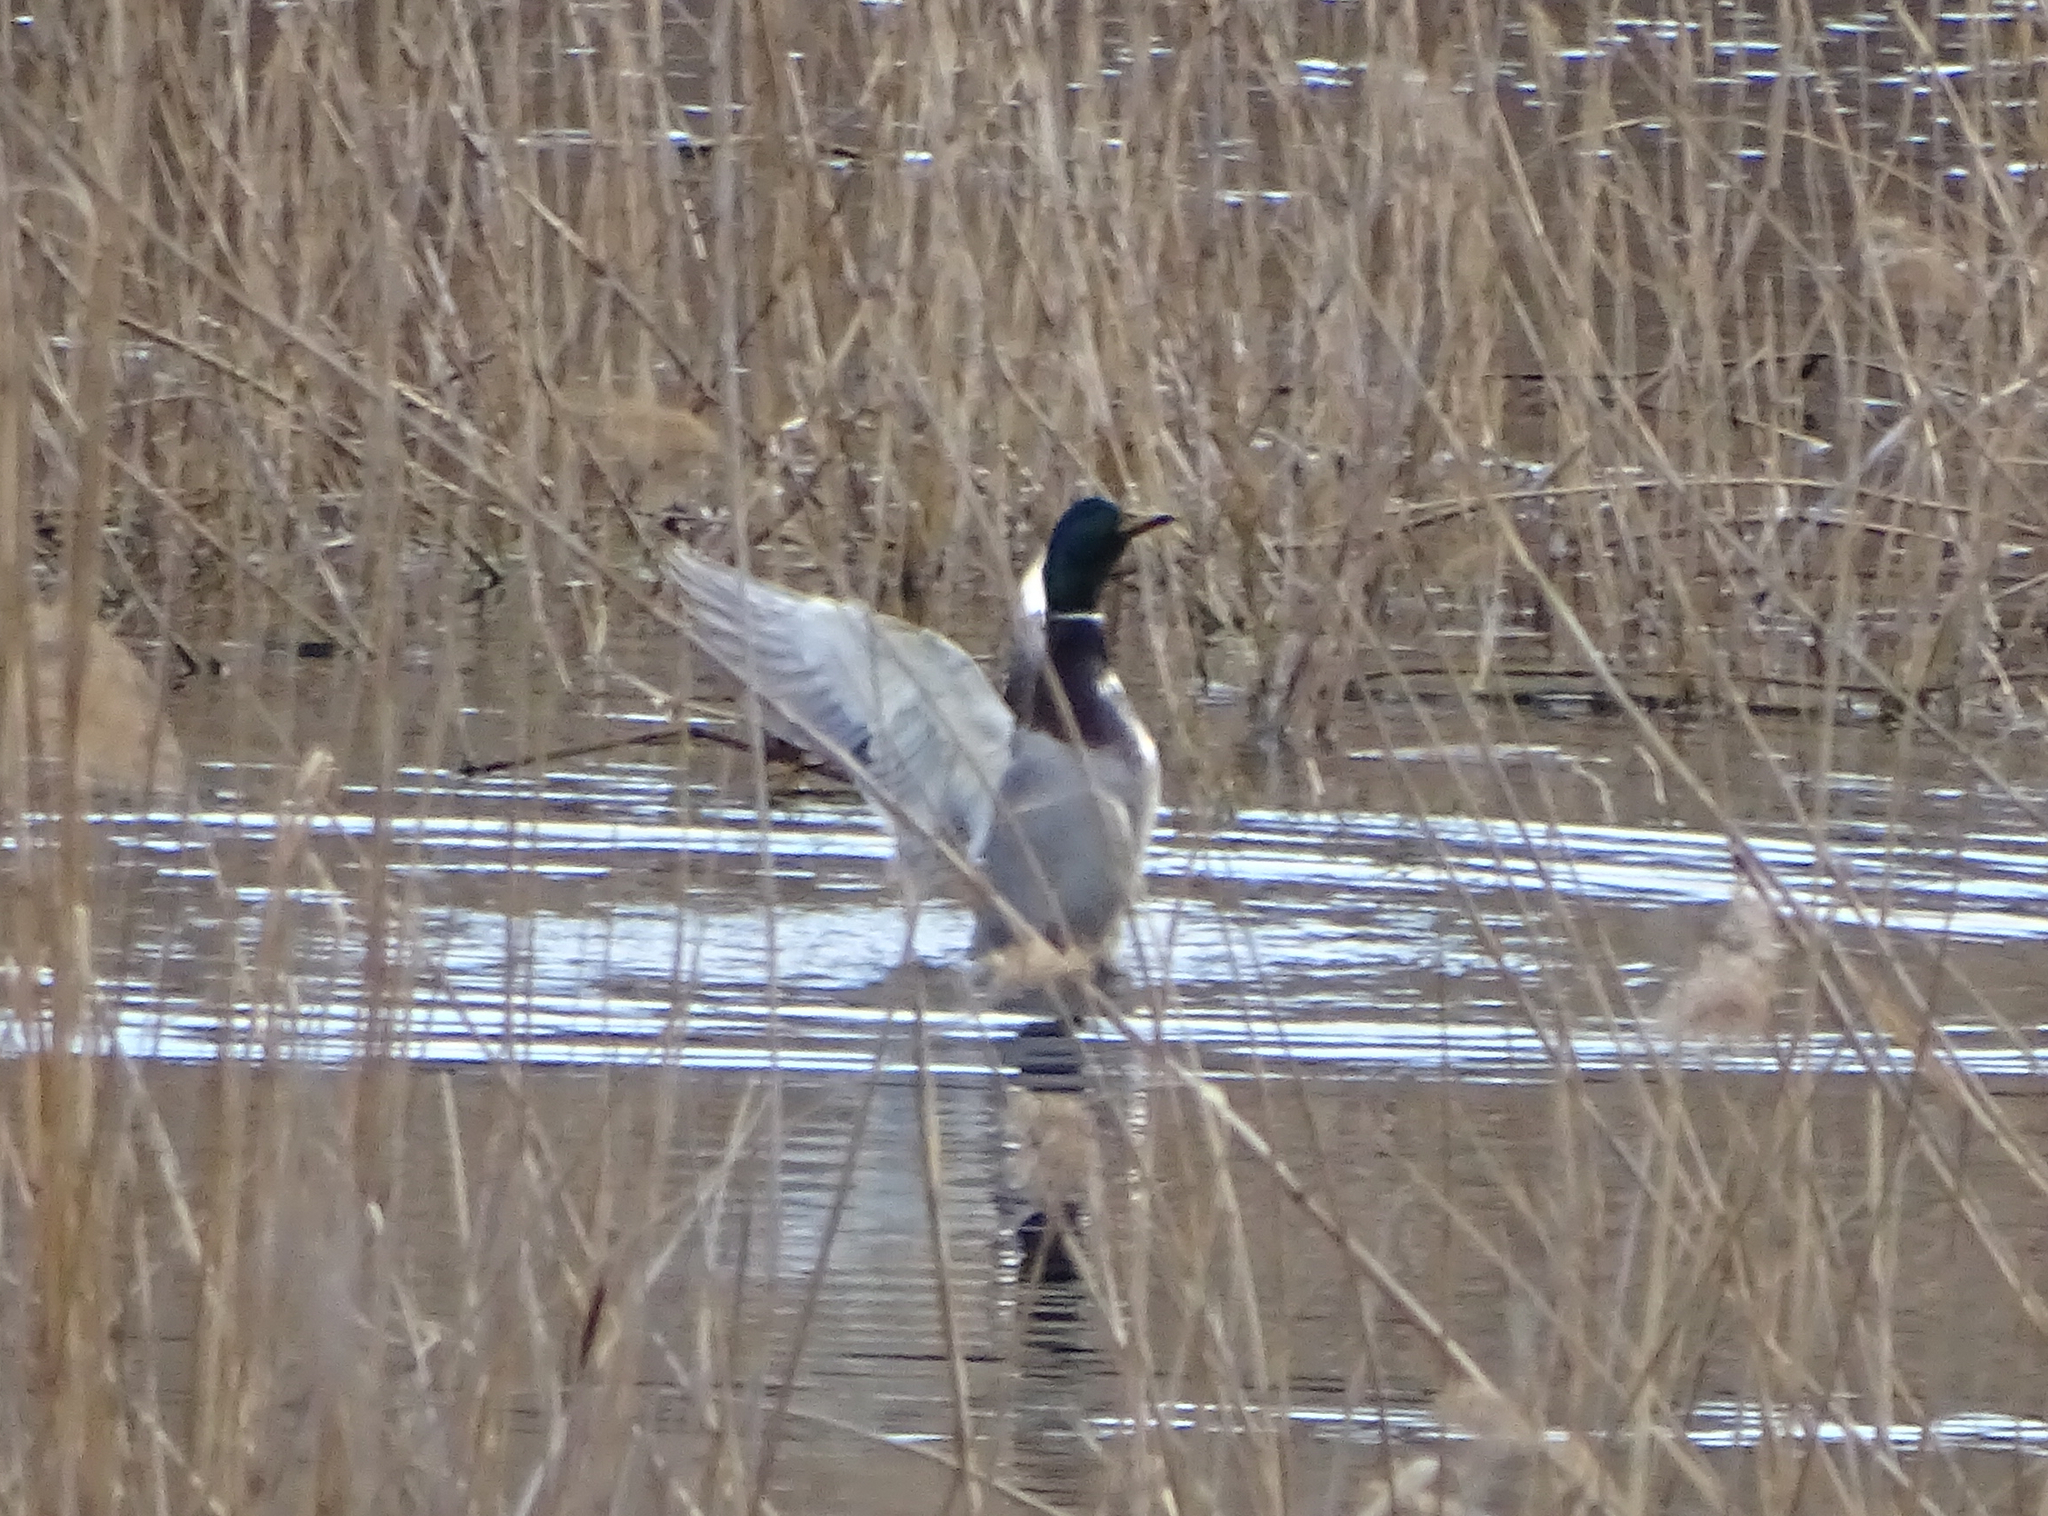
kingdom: Animalia
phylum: Chordata
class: Aves
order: Anseriformes
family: Anatidae
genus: Anas
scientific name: Anas platyrhynchos
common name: Mallard
